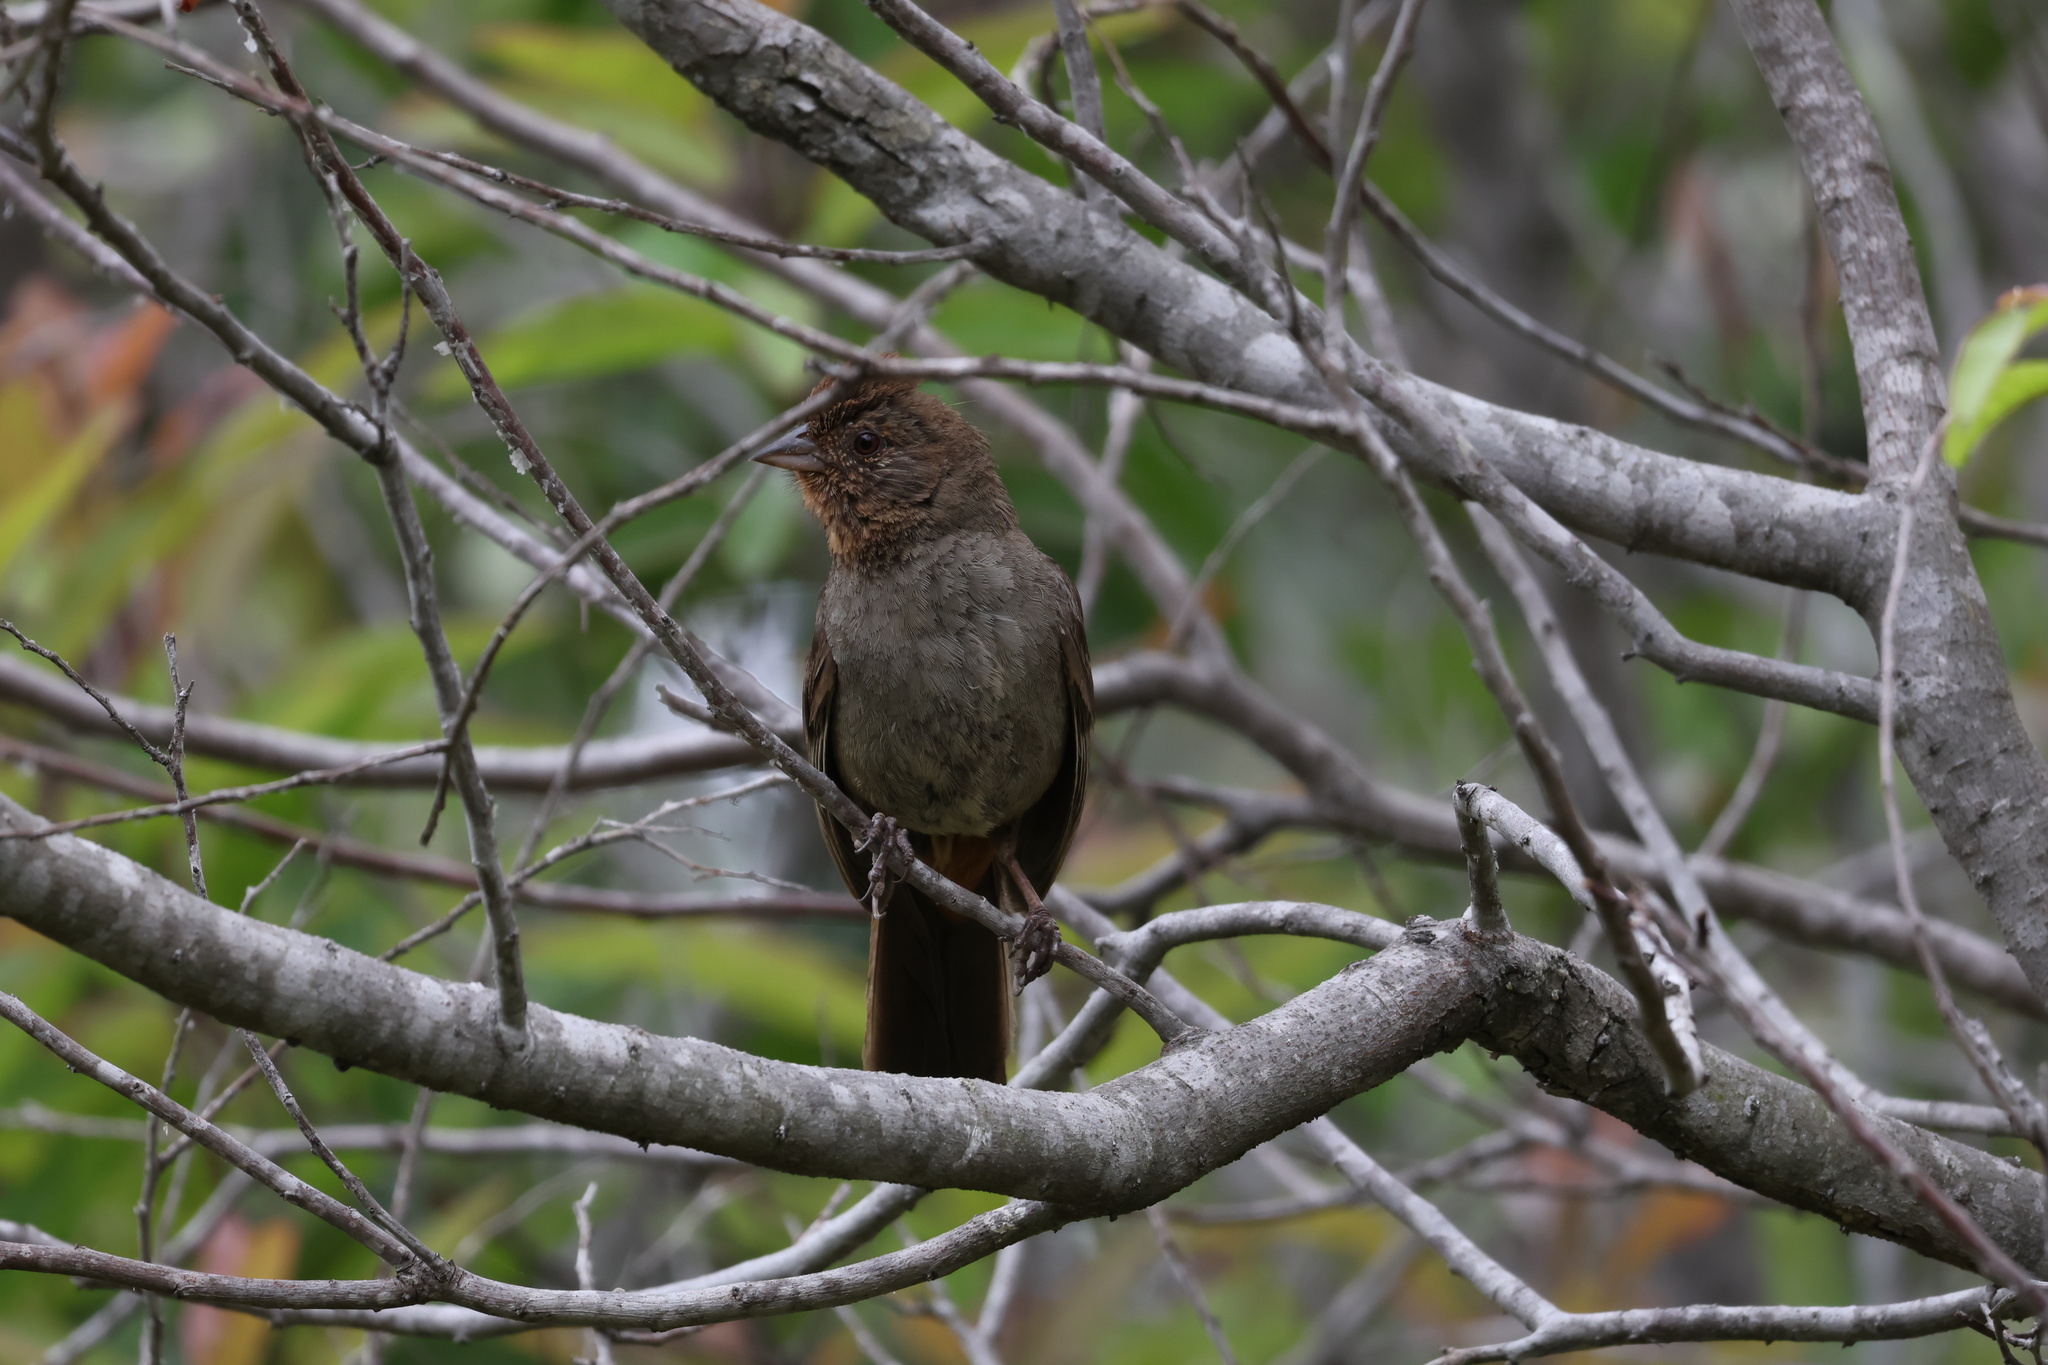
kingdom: Animalia
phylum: Chordata
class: Aves
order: Passeriformes
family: Passerellidae
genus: Melozone
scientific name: Melozone crissalis
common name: California towhee
